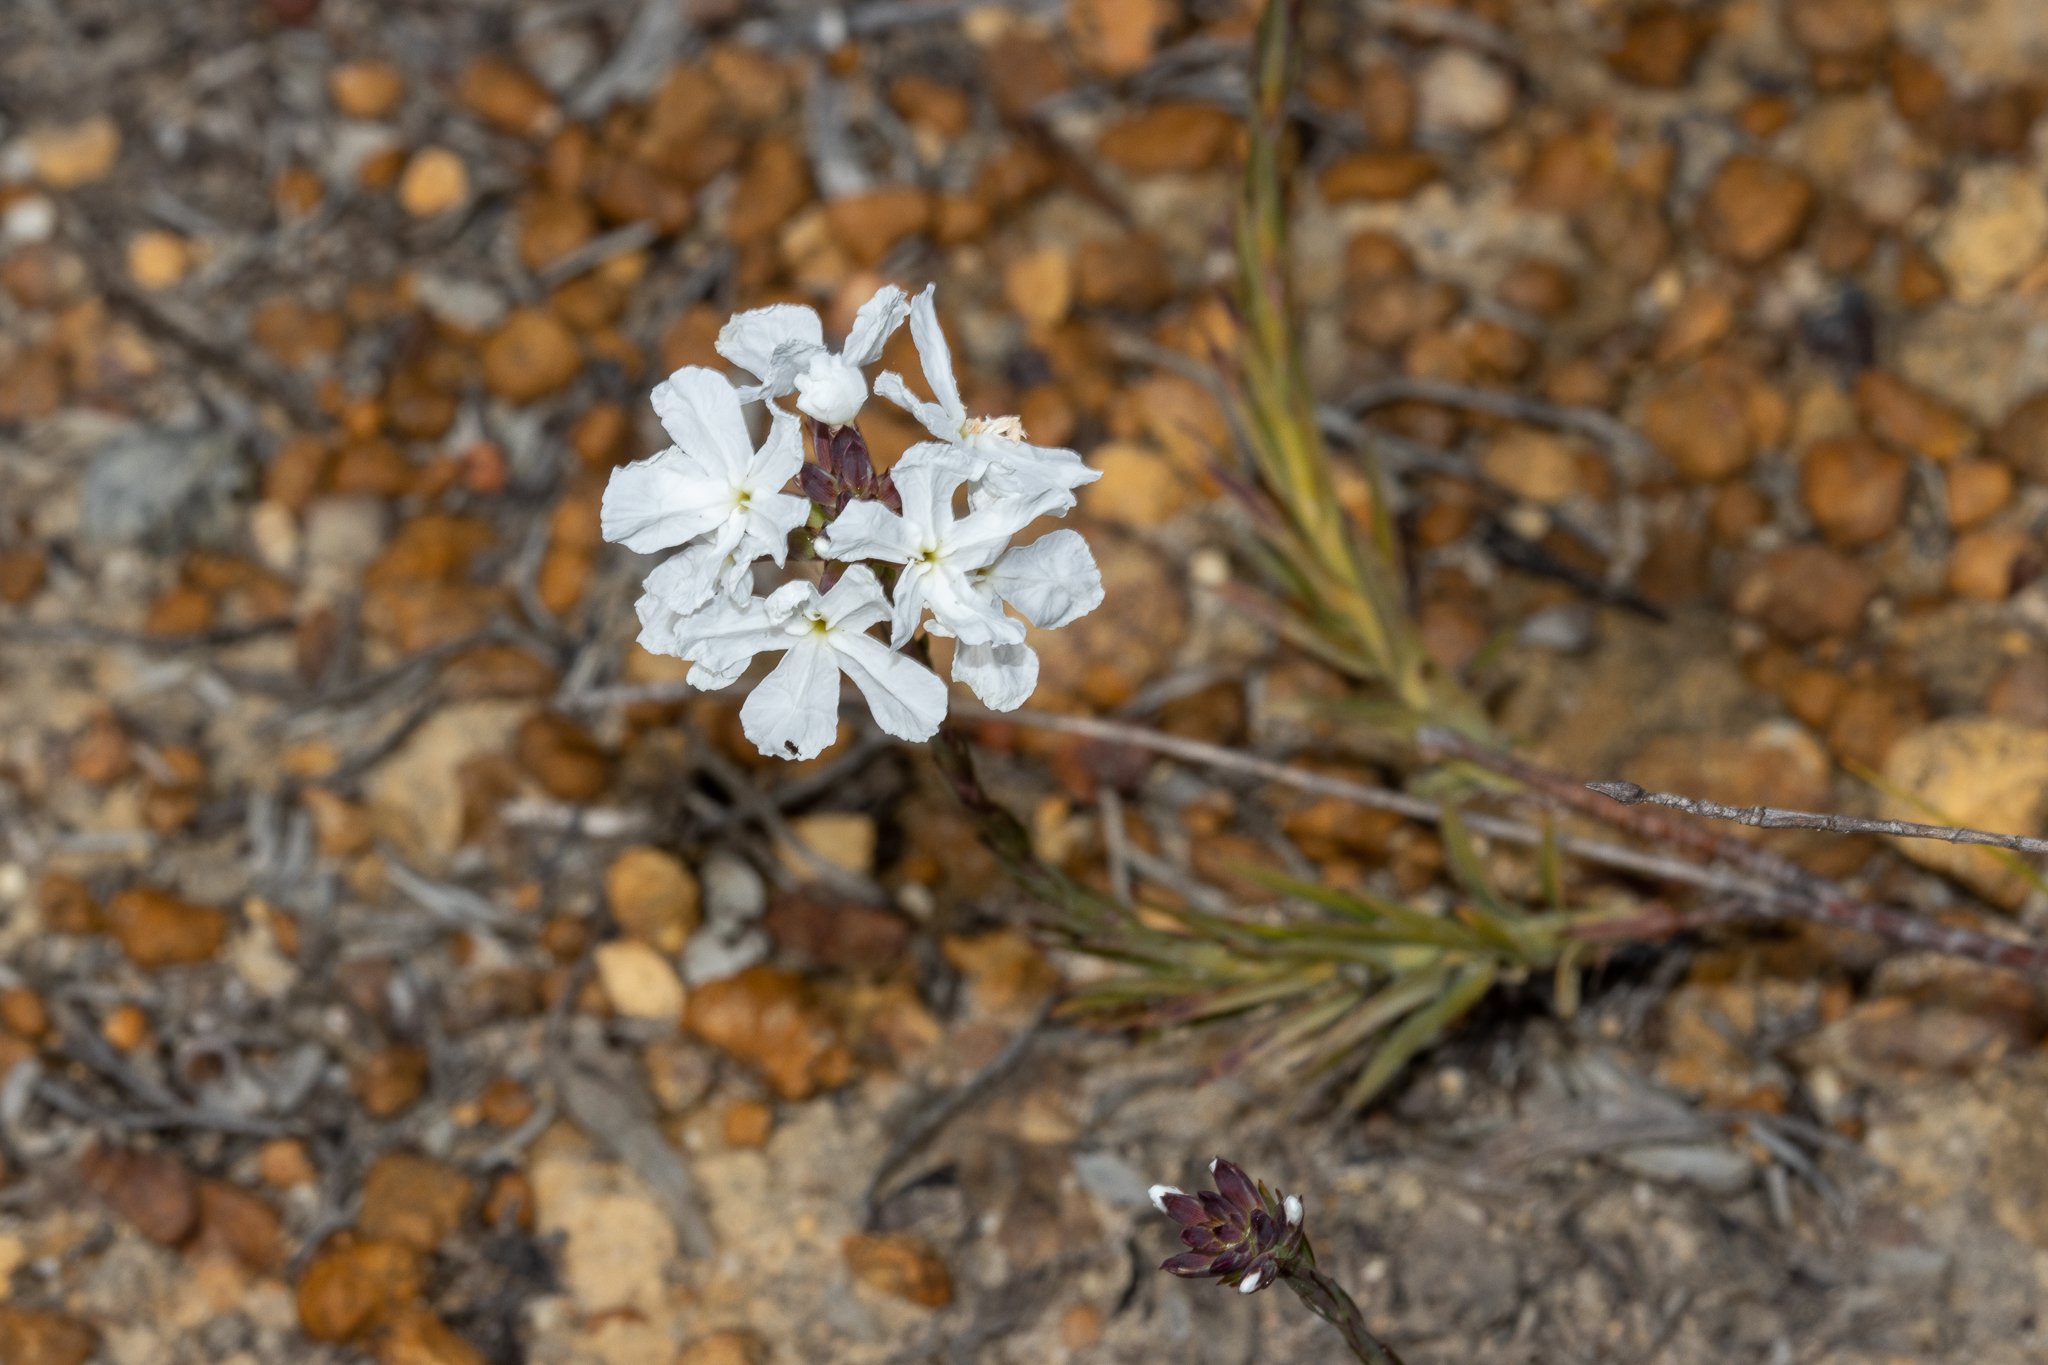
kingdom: Plantae
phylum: Tracheophyta
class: Magnoliopsida
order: Ericales
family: Ericaceae
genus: Sphenotoma
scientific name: Sphenotoma capitatum
